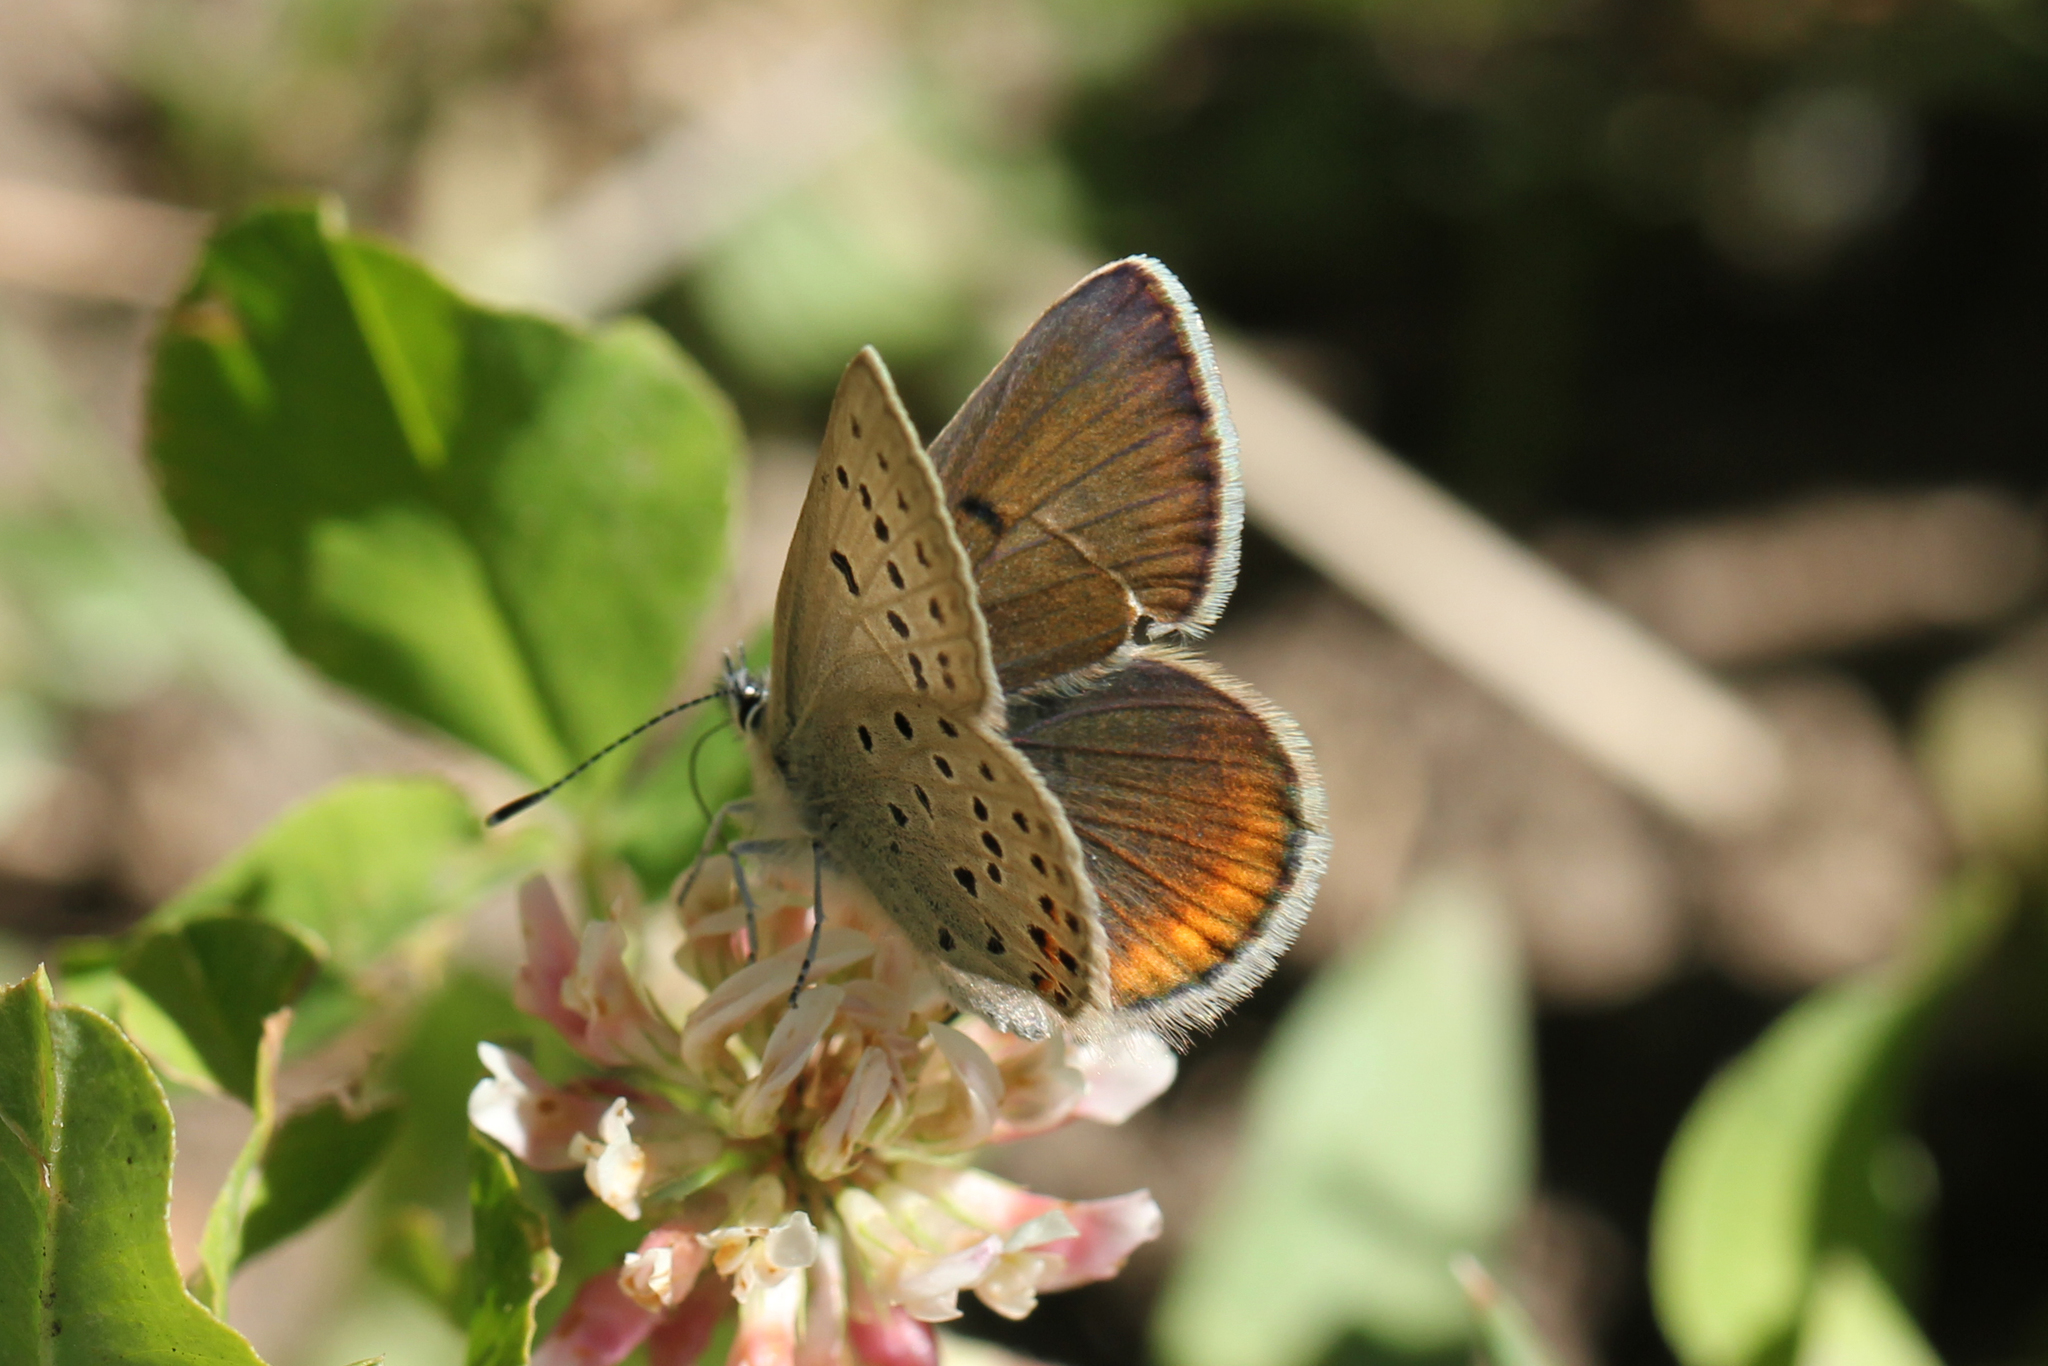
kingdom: Animalia
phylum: Arthropoda
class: Insecta
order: Lepidoptera
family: Lycaenidae
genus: Icaricia
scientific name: Icaricia saepiolus
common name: Greenish blue
